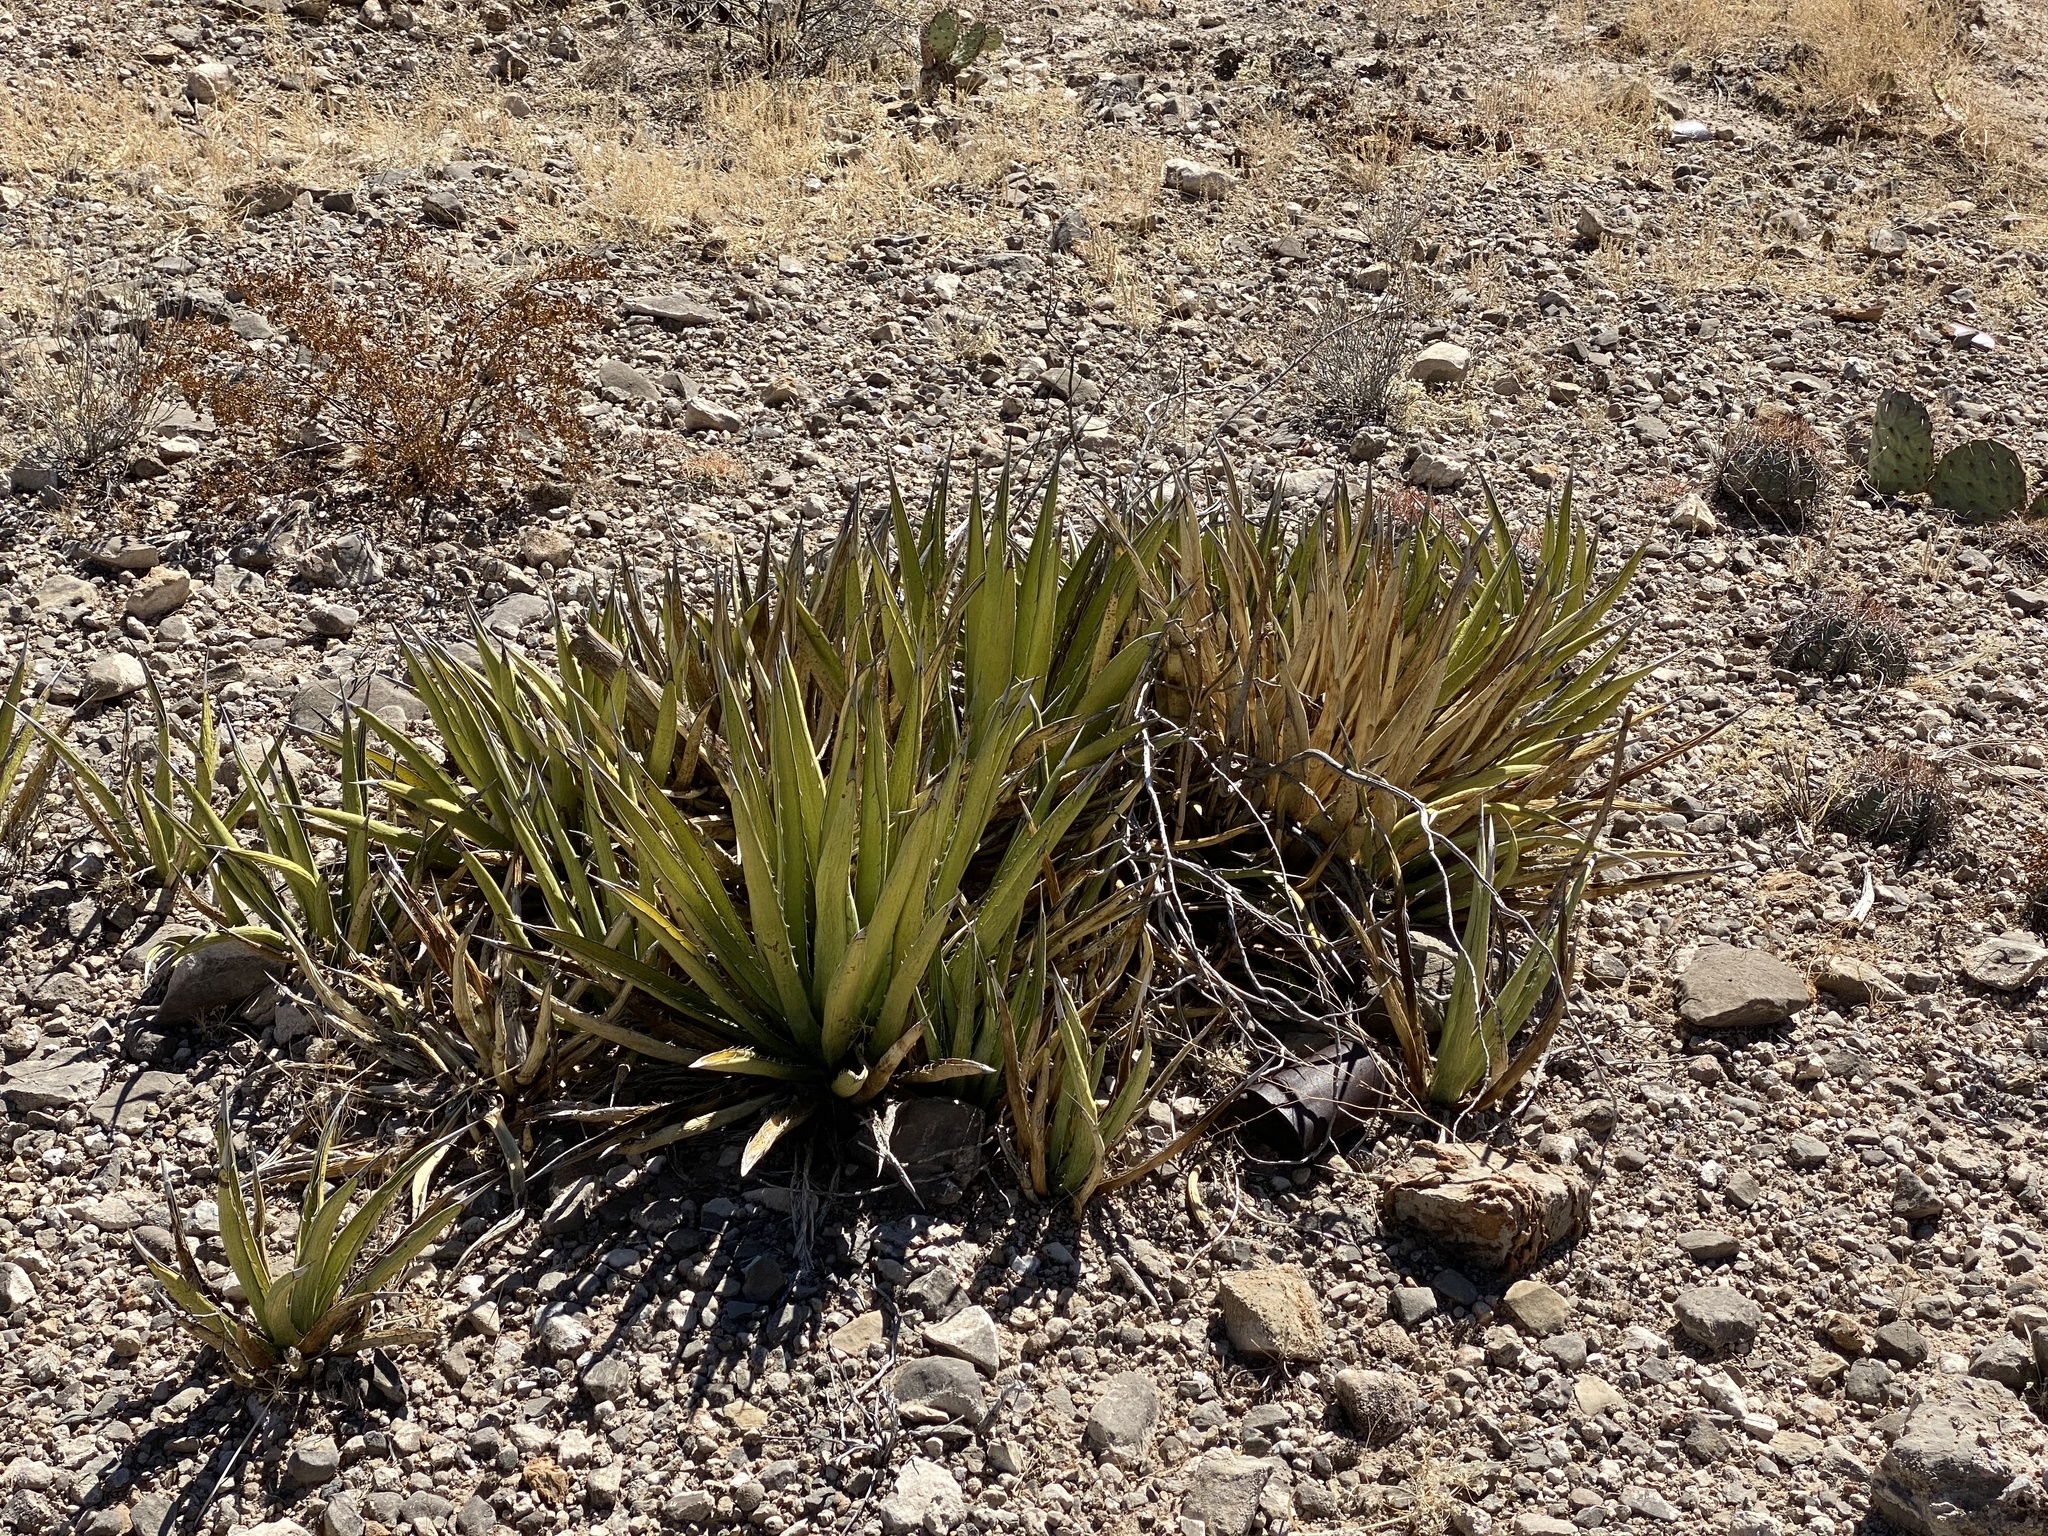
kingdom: Plantae
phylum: Tracheophyta
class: Liliopsida
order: Asparagales
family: Asparagaceae
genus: Agave
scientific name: Agave lechuguilla
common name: Lecheguilla agave
